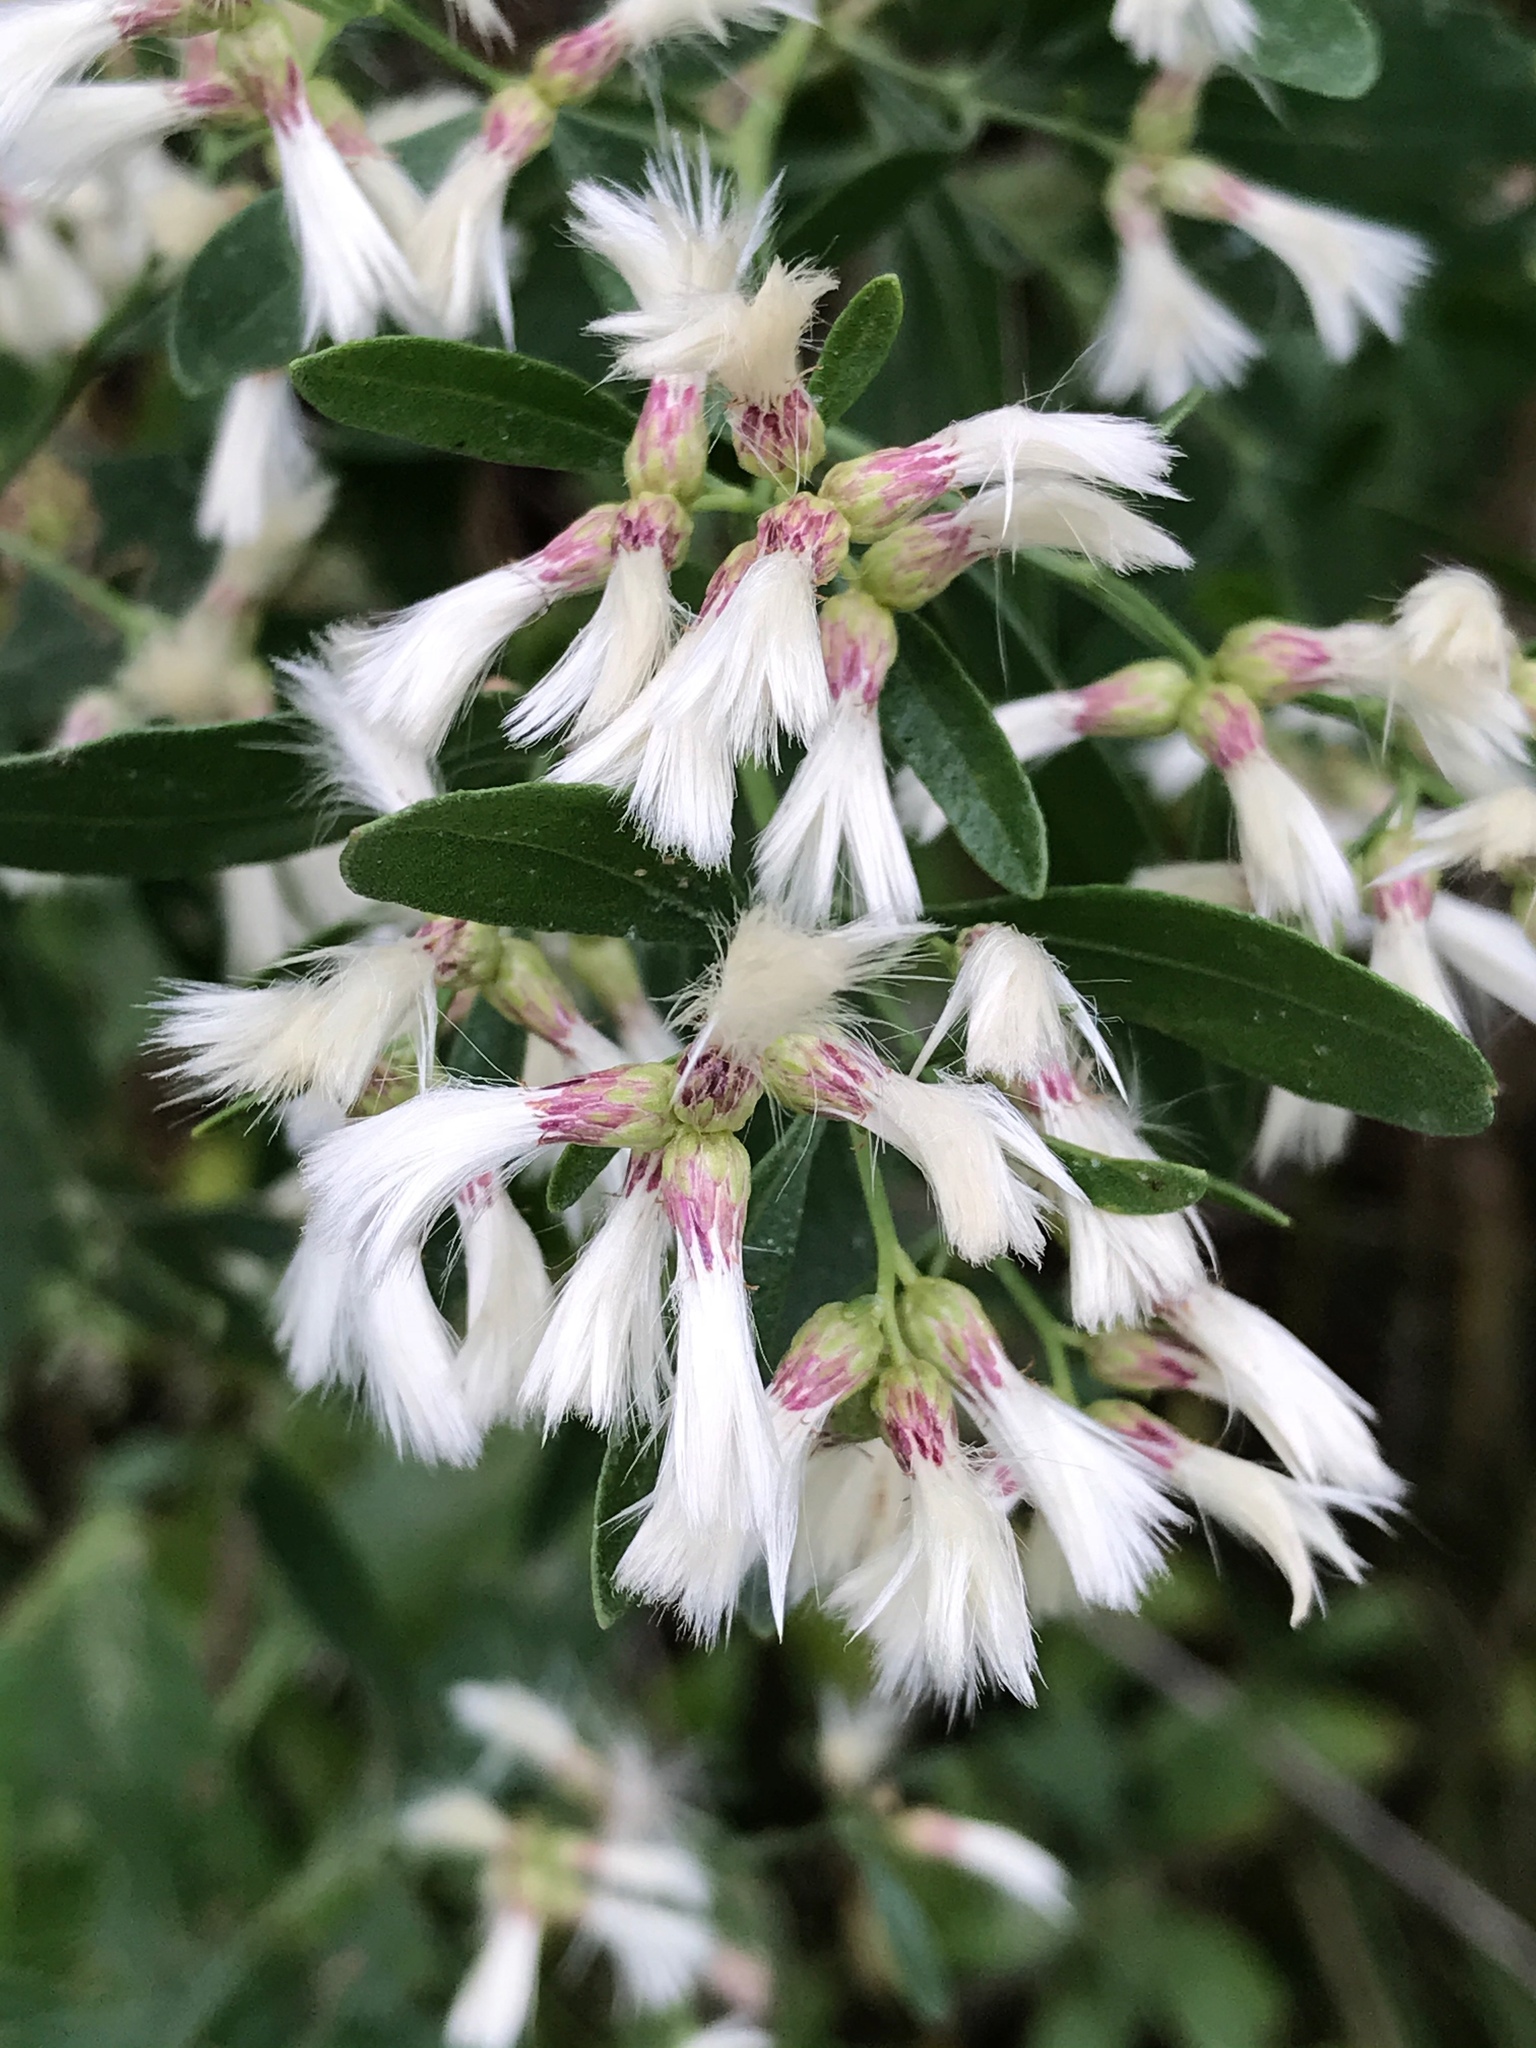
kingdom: Plantae
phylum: Tracheophyta
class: Magnoliopsida
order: Asterales
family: Asteraceae
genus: Baccharis
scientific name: Baccharis halimifolia
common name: Eastern baccharis
